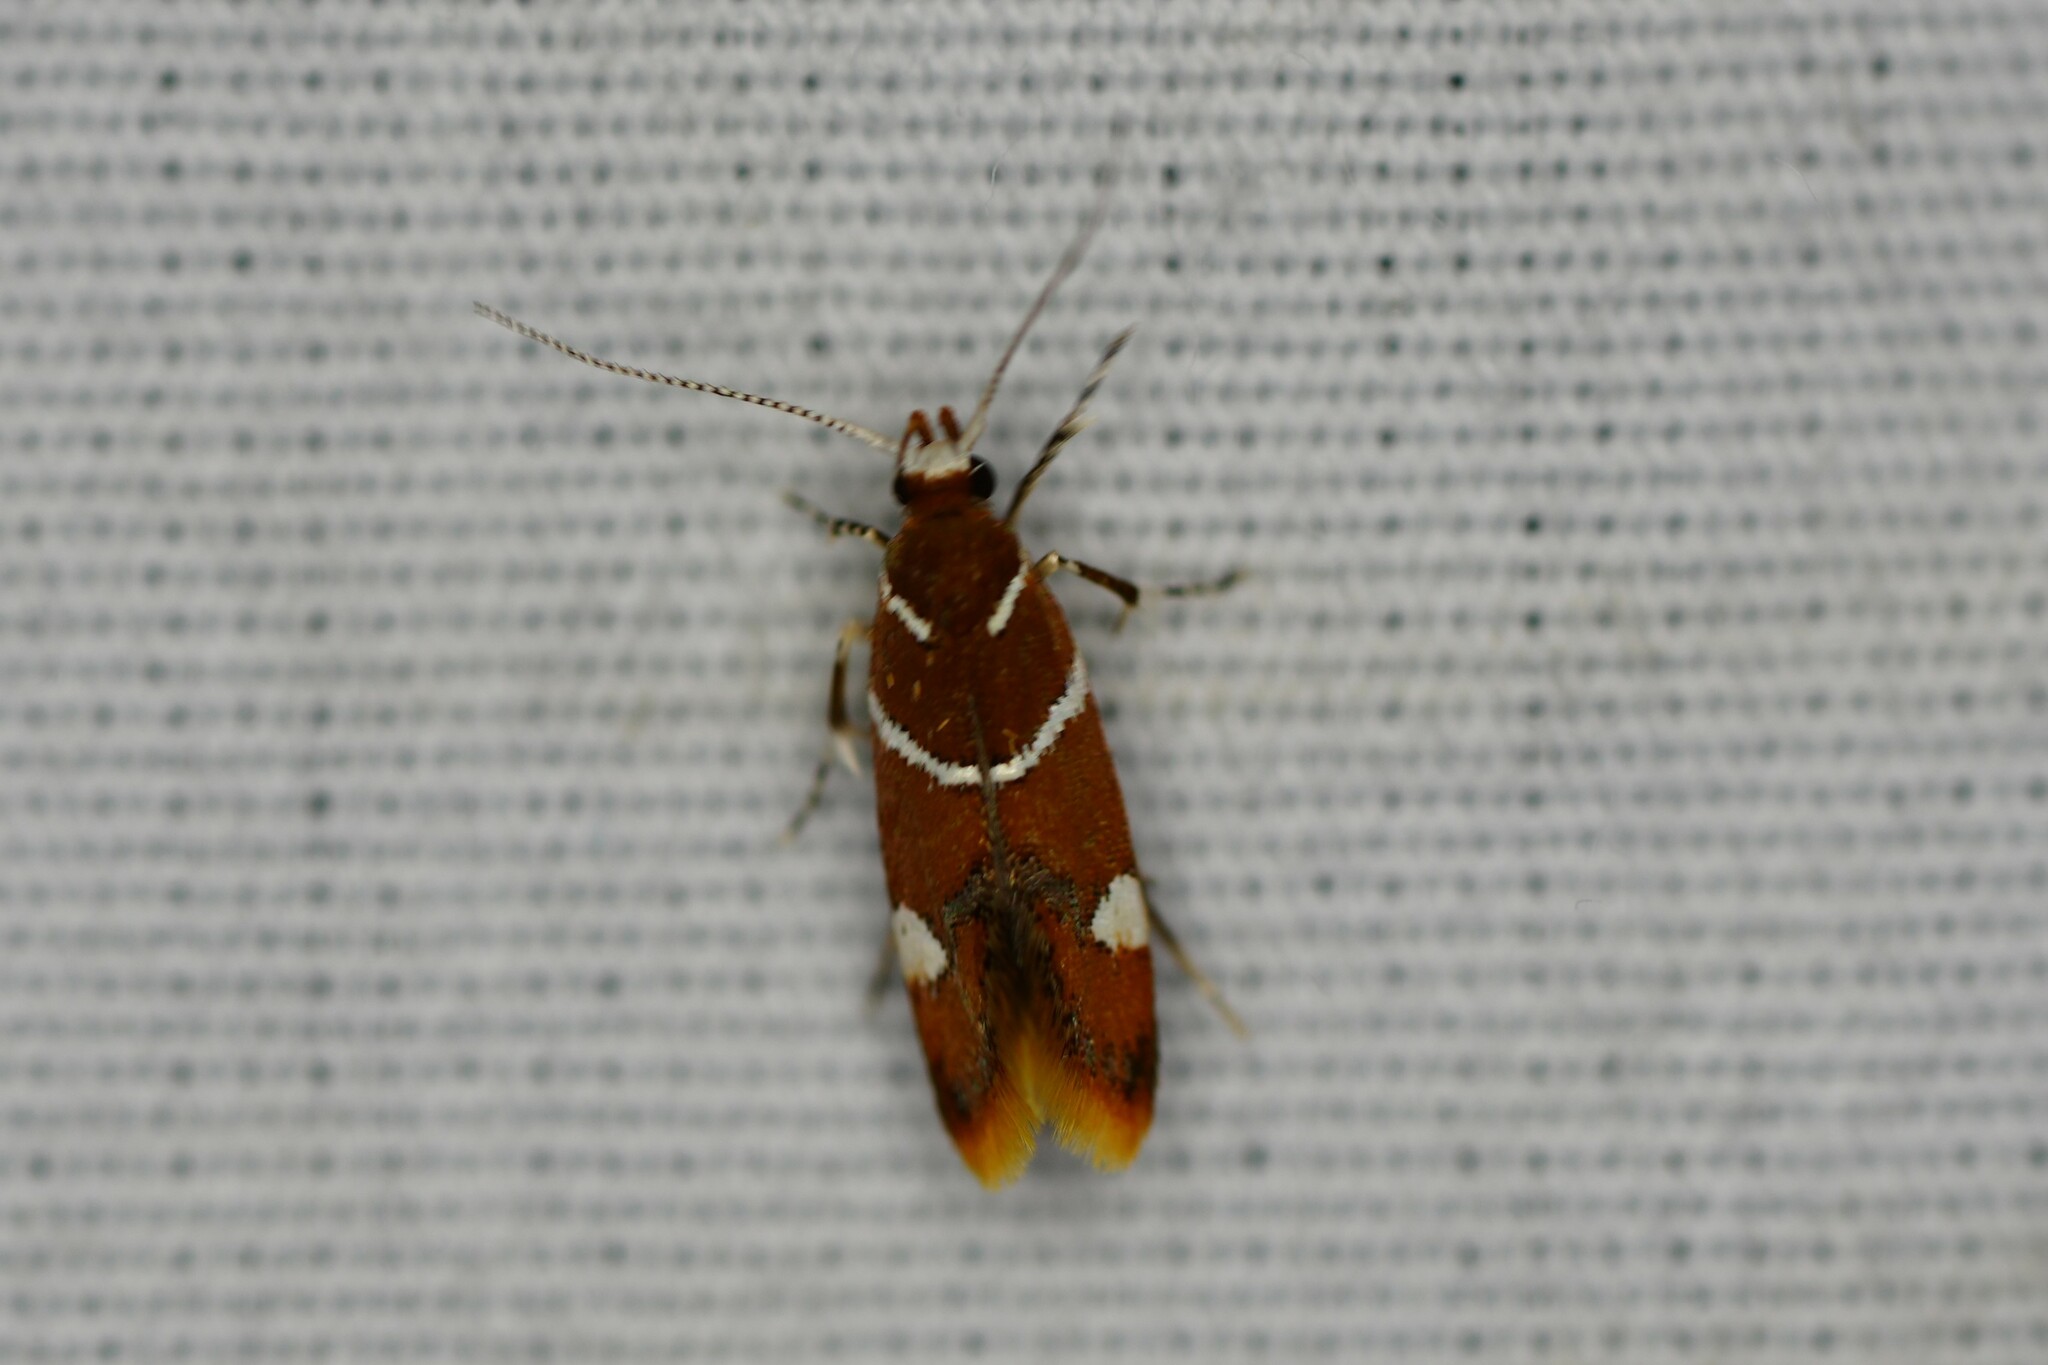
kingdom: Animalia
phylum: Arthropoda
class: Insecta
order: Lepidoptera
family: Oecophoridae
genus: Promalactis
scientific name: Promalactis suzukiella
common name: Moth
